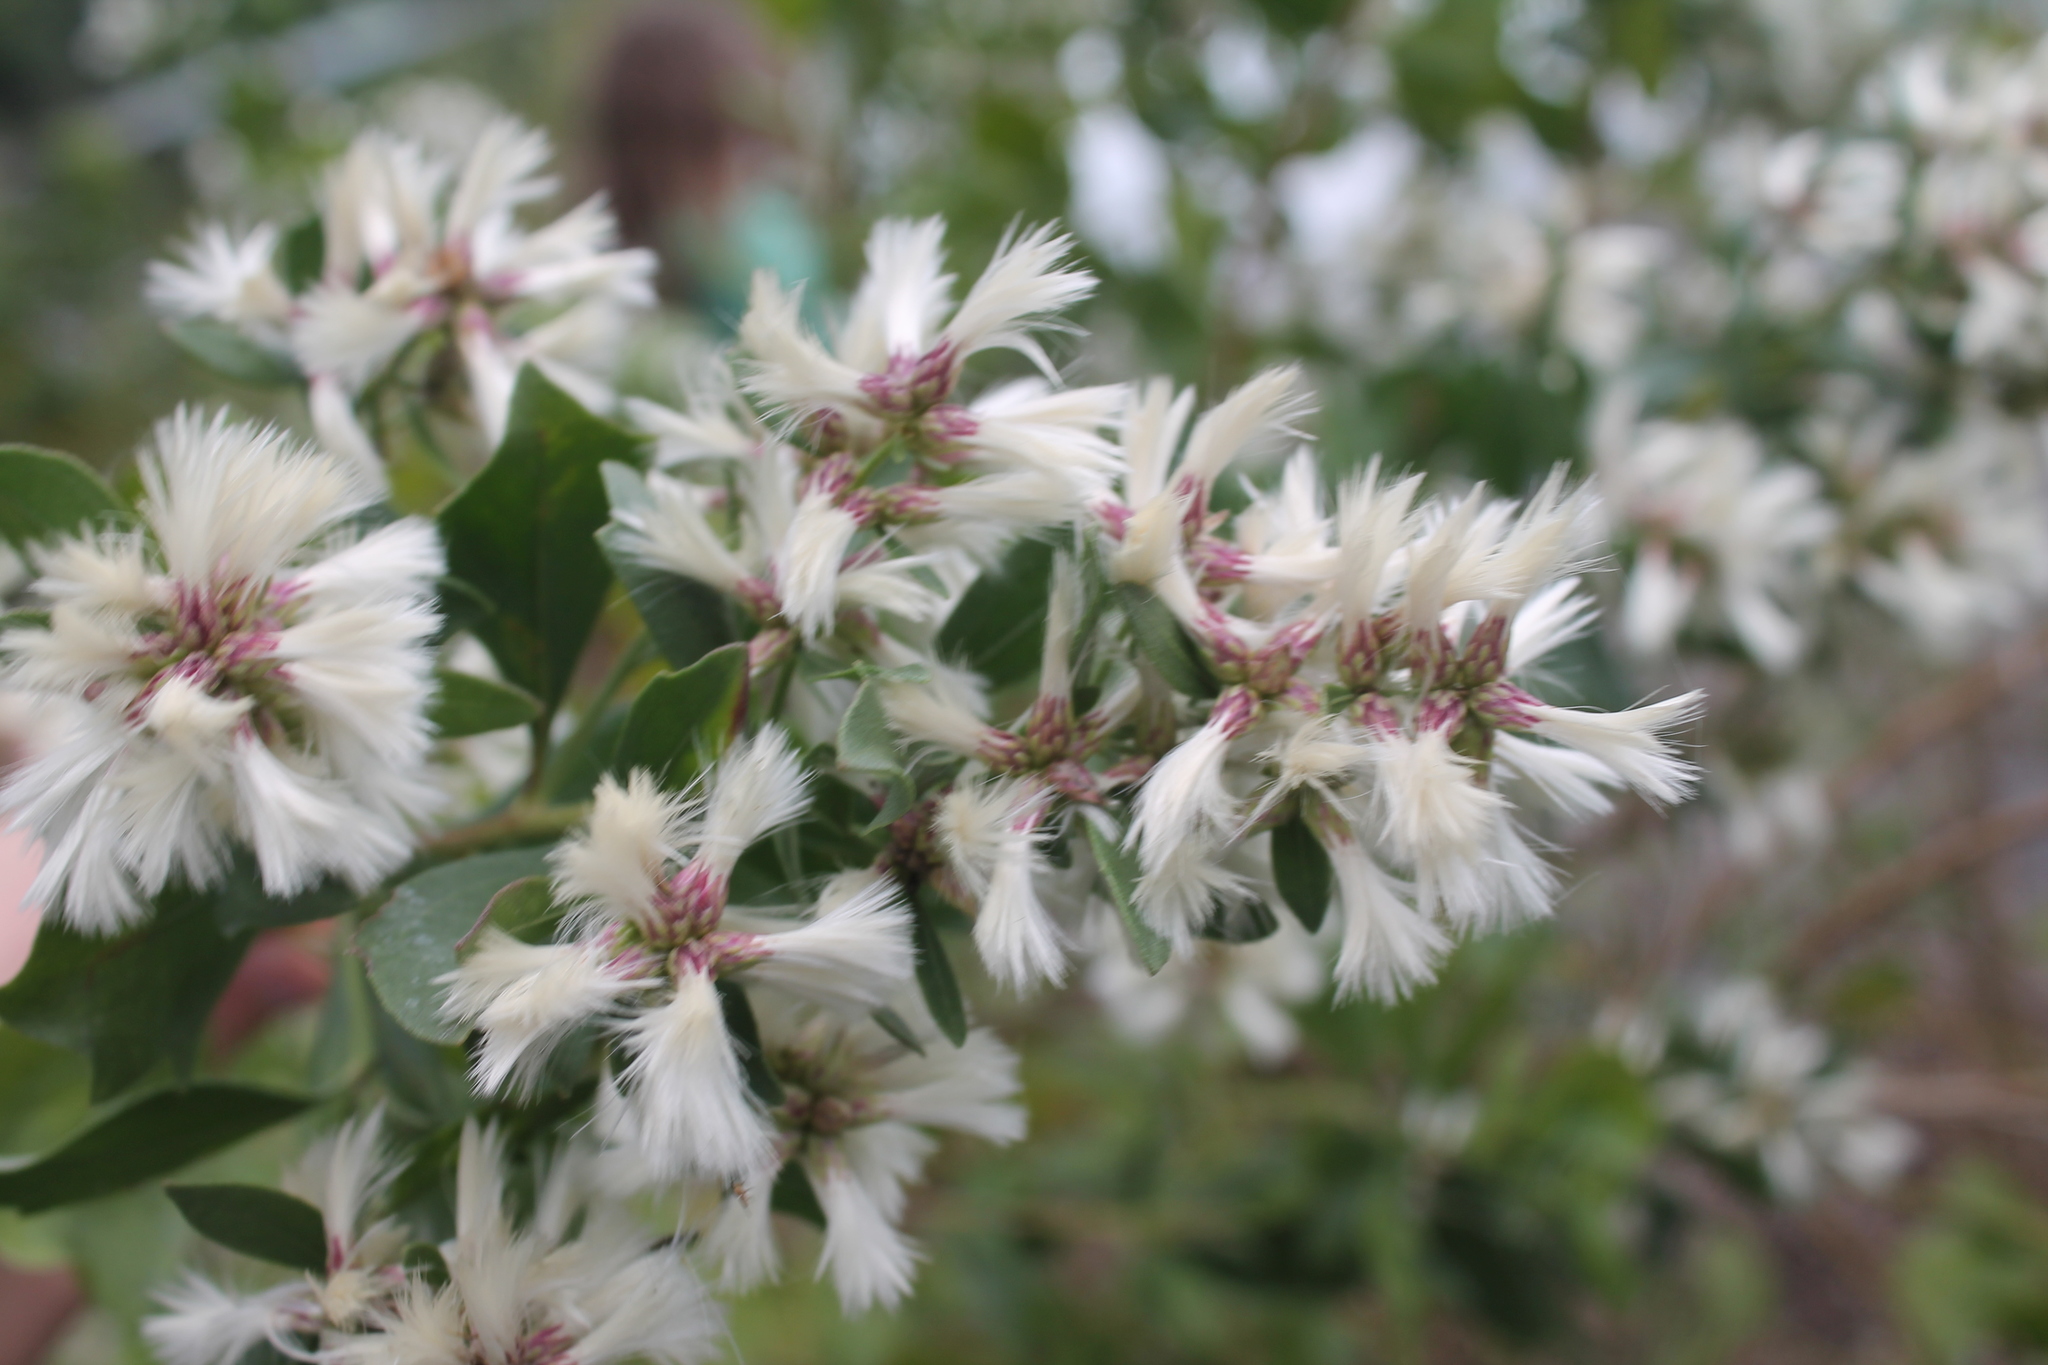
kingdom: Plantae
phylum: Tracheophyta
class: Magnoliopsida
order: Asterales
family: Asteraceae
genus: Baccharis
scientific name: Baccharis halimifolia
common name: Eastern baccharis
